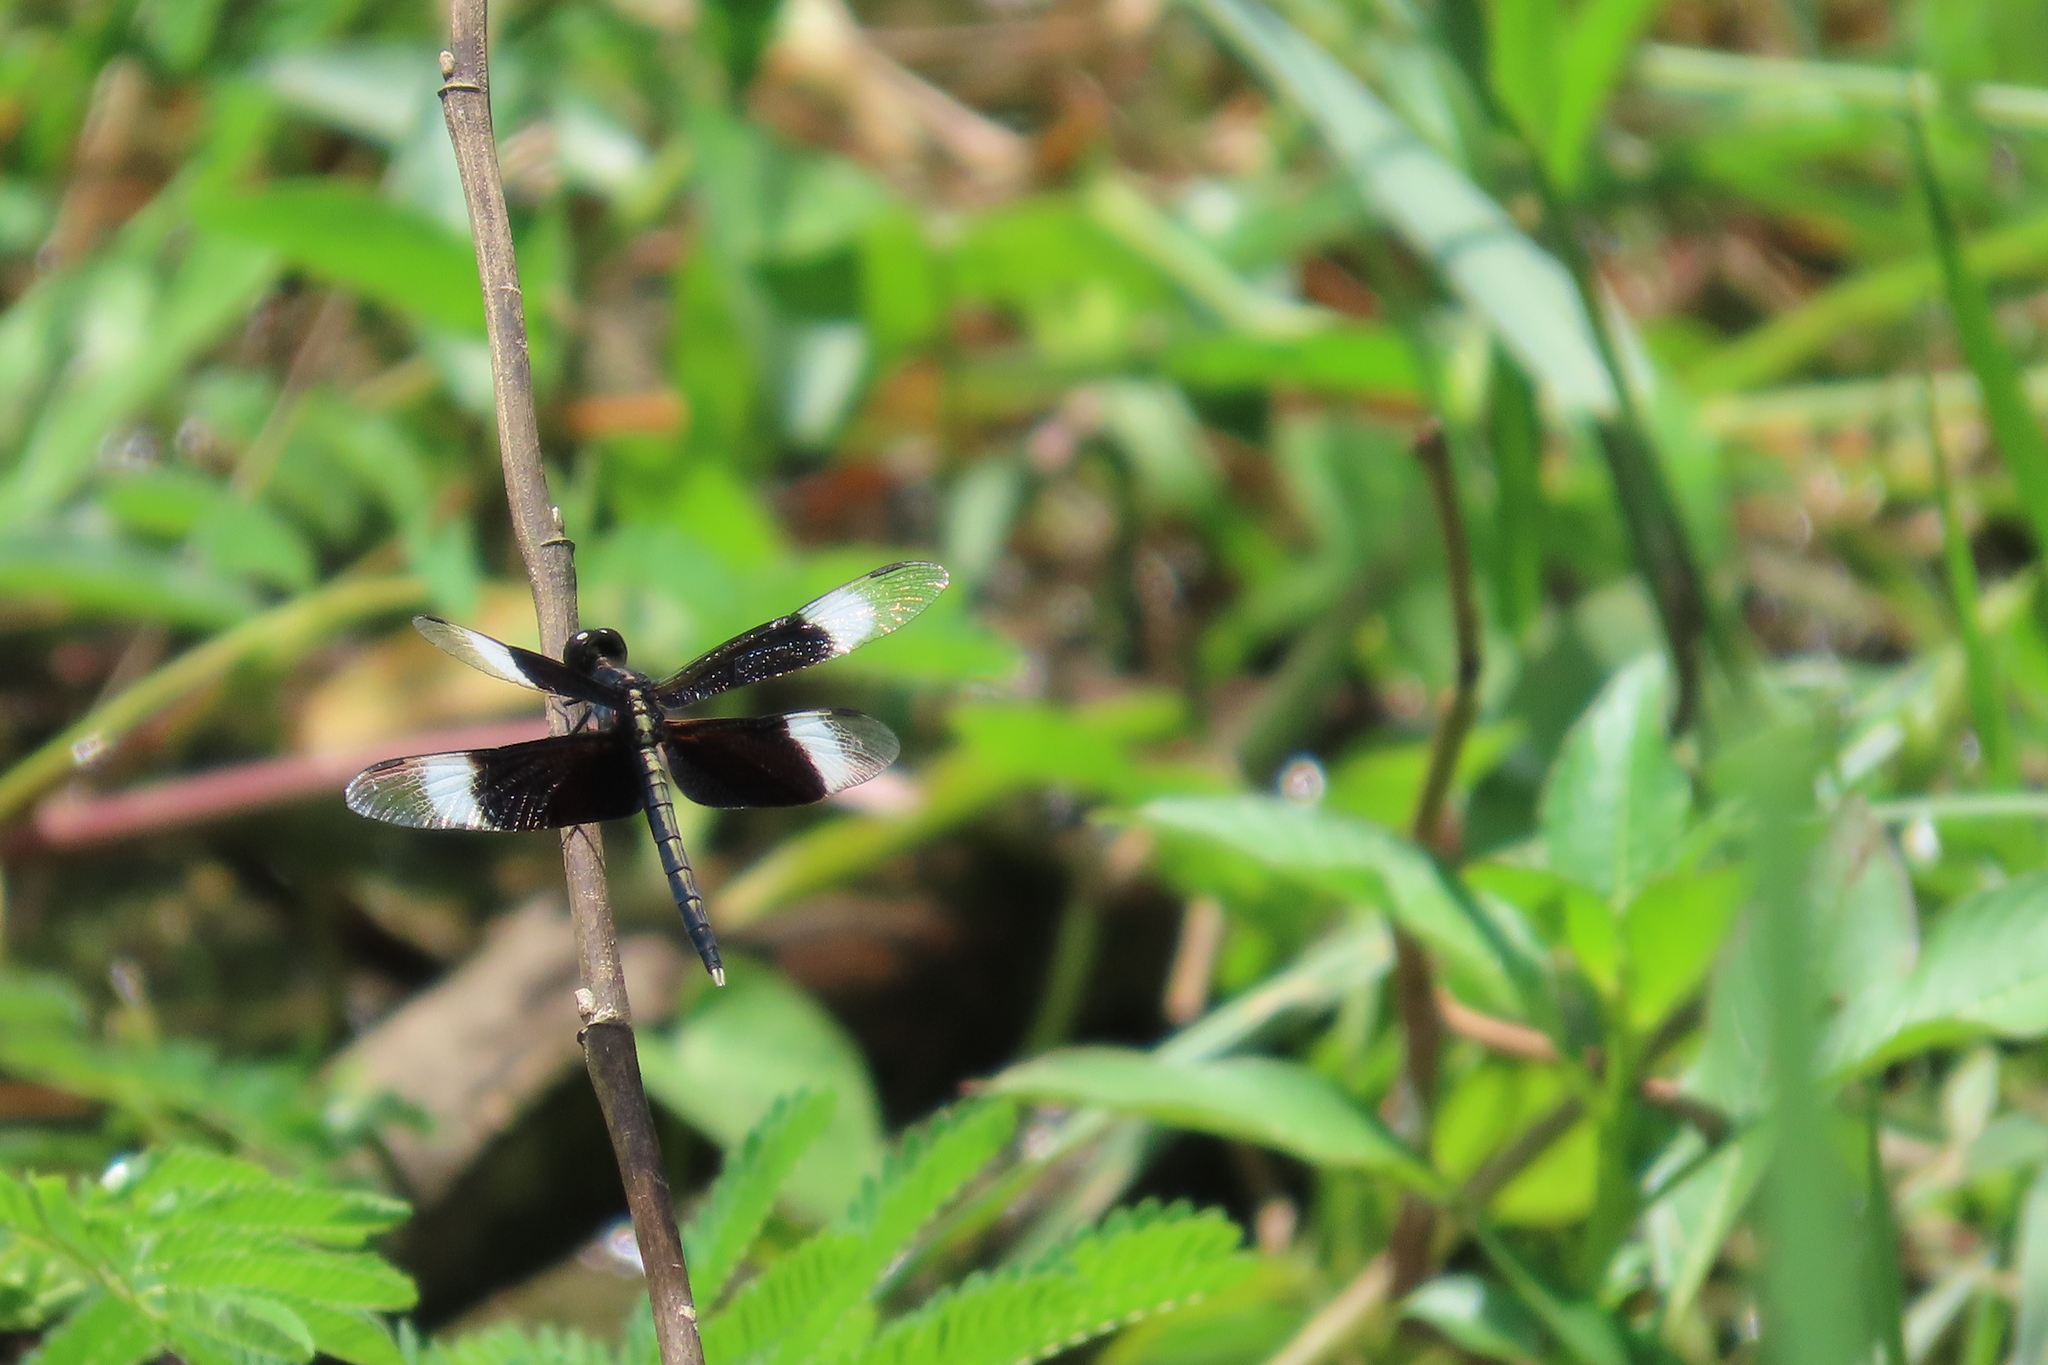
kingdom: Animalia
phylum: Arthropoda
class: Insecta
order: Odonata
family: Libellulidae
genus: Neurothemis
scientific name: Neurothemis tullia
